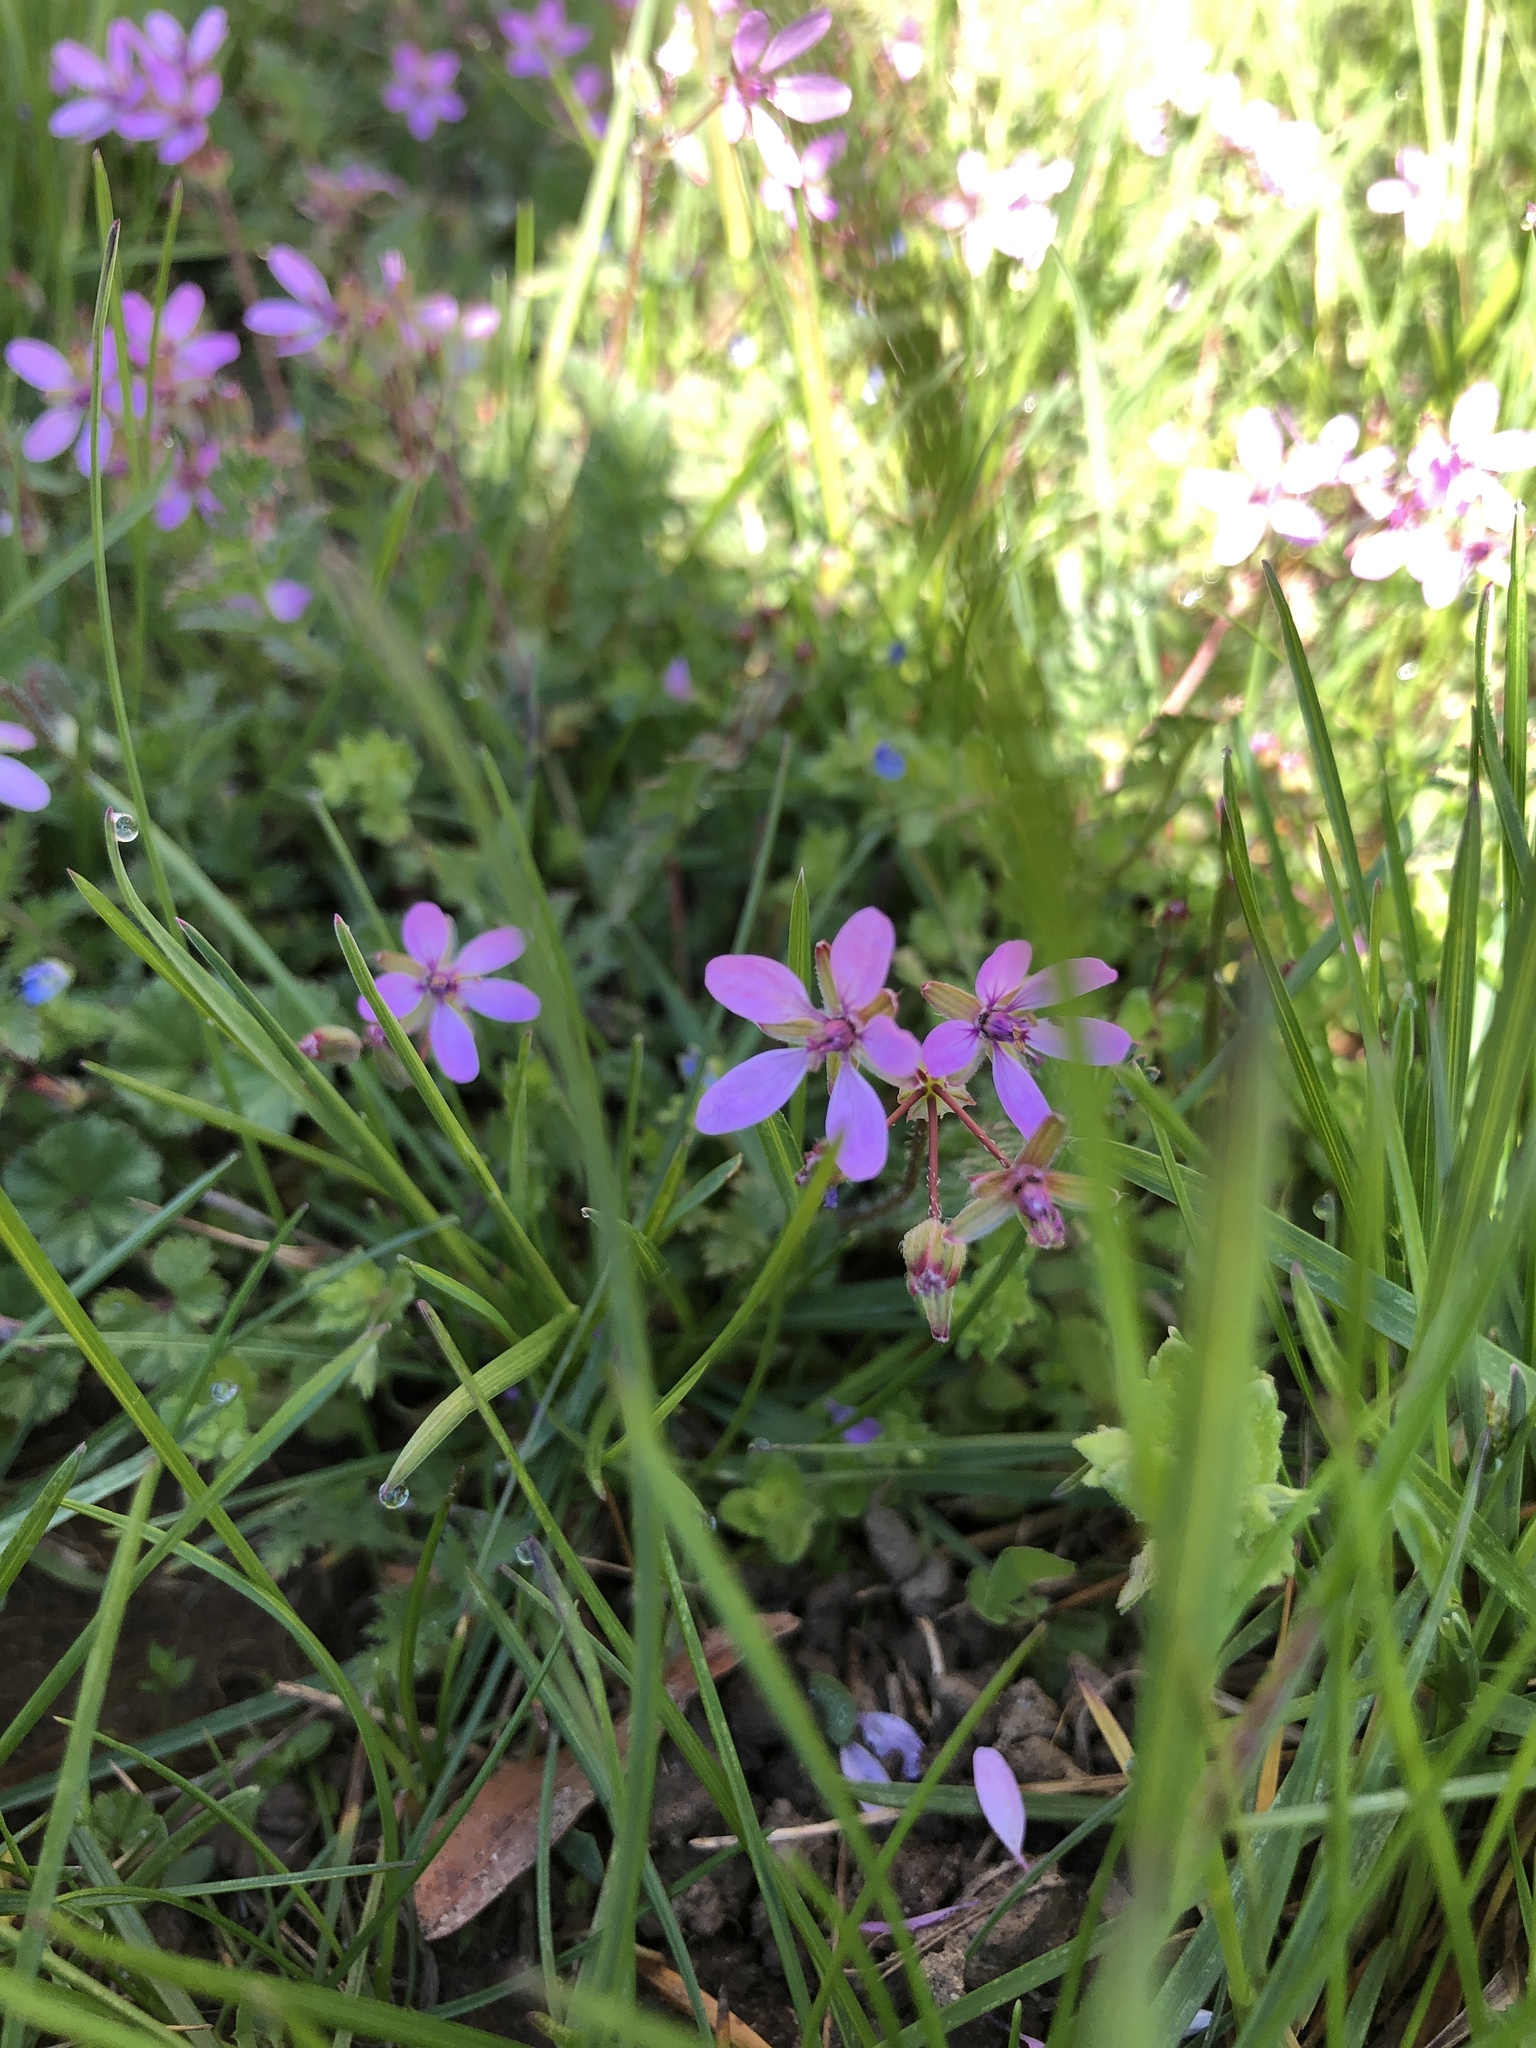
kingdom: Plantae
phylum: Tracheophyta
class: Magnoliopsida
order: Geraniales
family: Geraniaceae
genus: Erodium
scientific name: Erodium cicutarium
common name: Common stork's-bill
